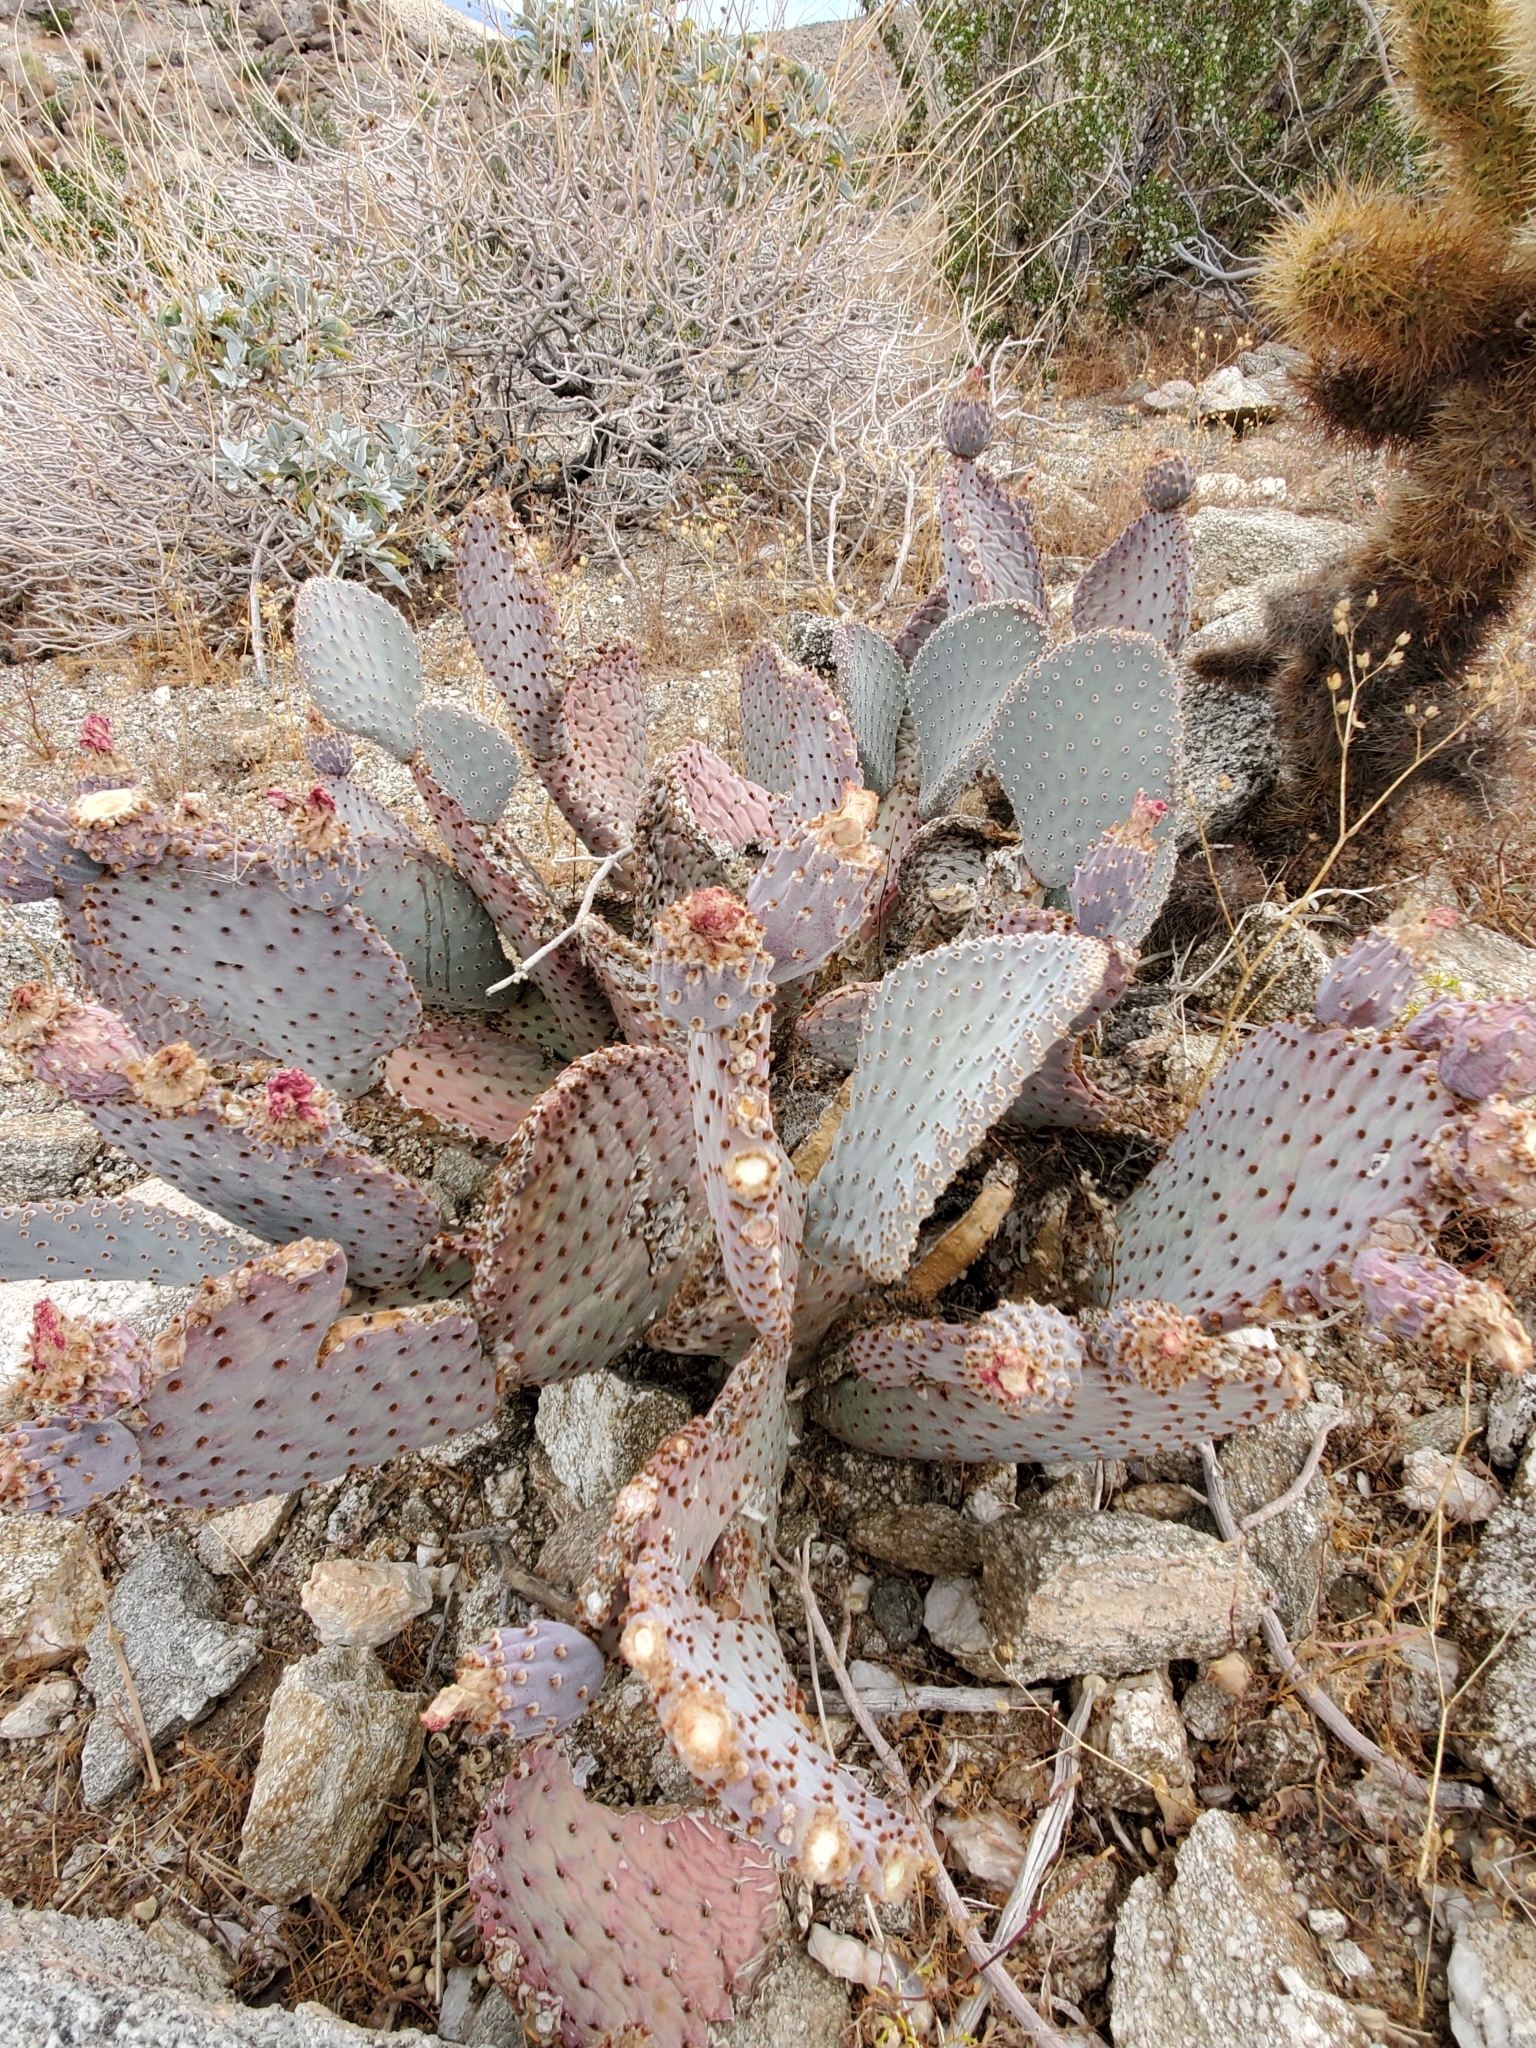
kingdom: Plantae
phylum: Tracheophyta
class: Magnoliopsida
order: Caryophyllales
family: Cactaceae
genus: Opuntia
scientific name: Opuntia basilaris
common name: Beavertail prickly-pear
